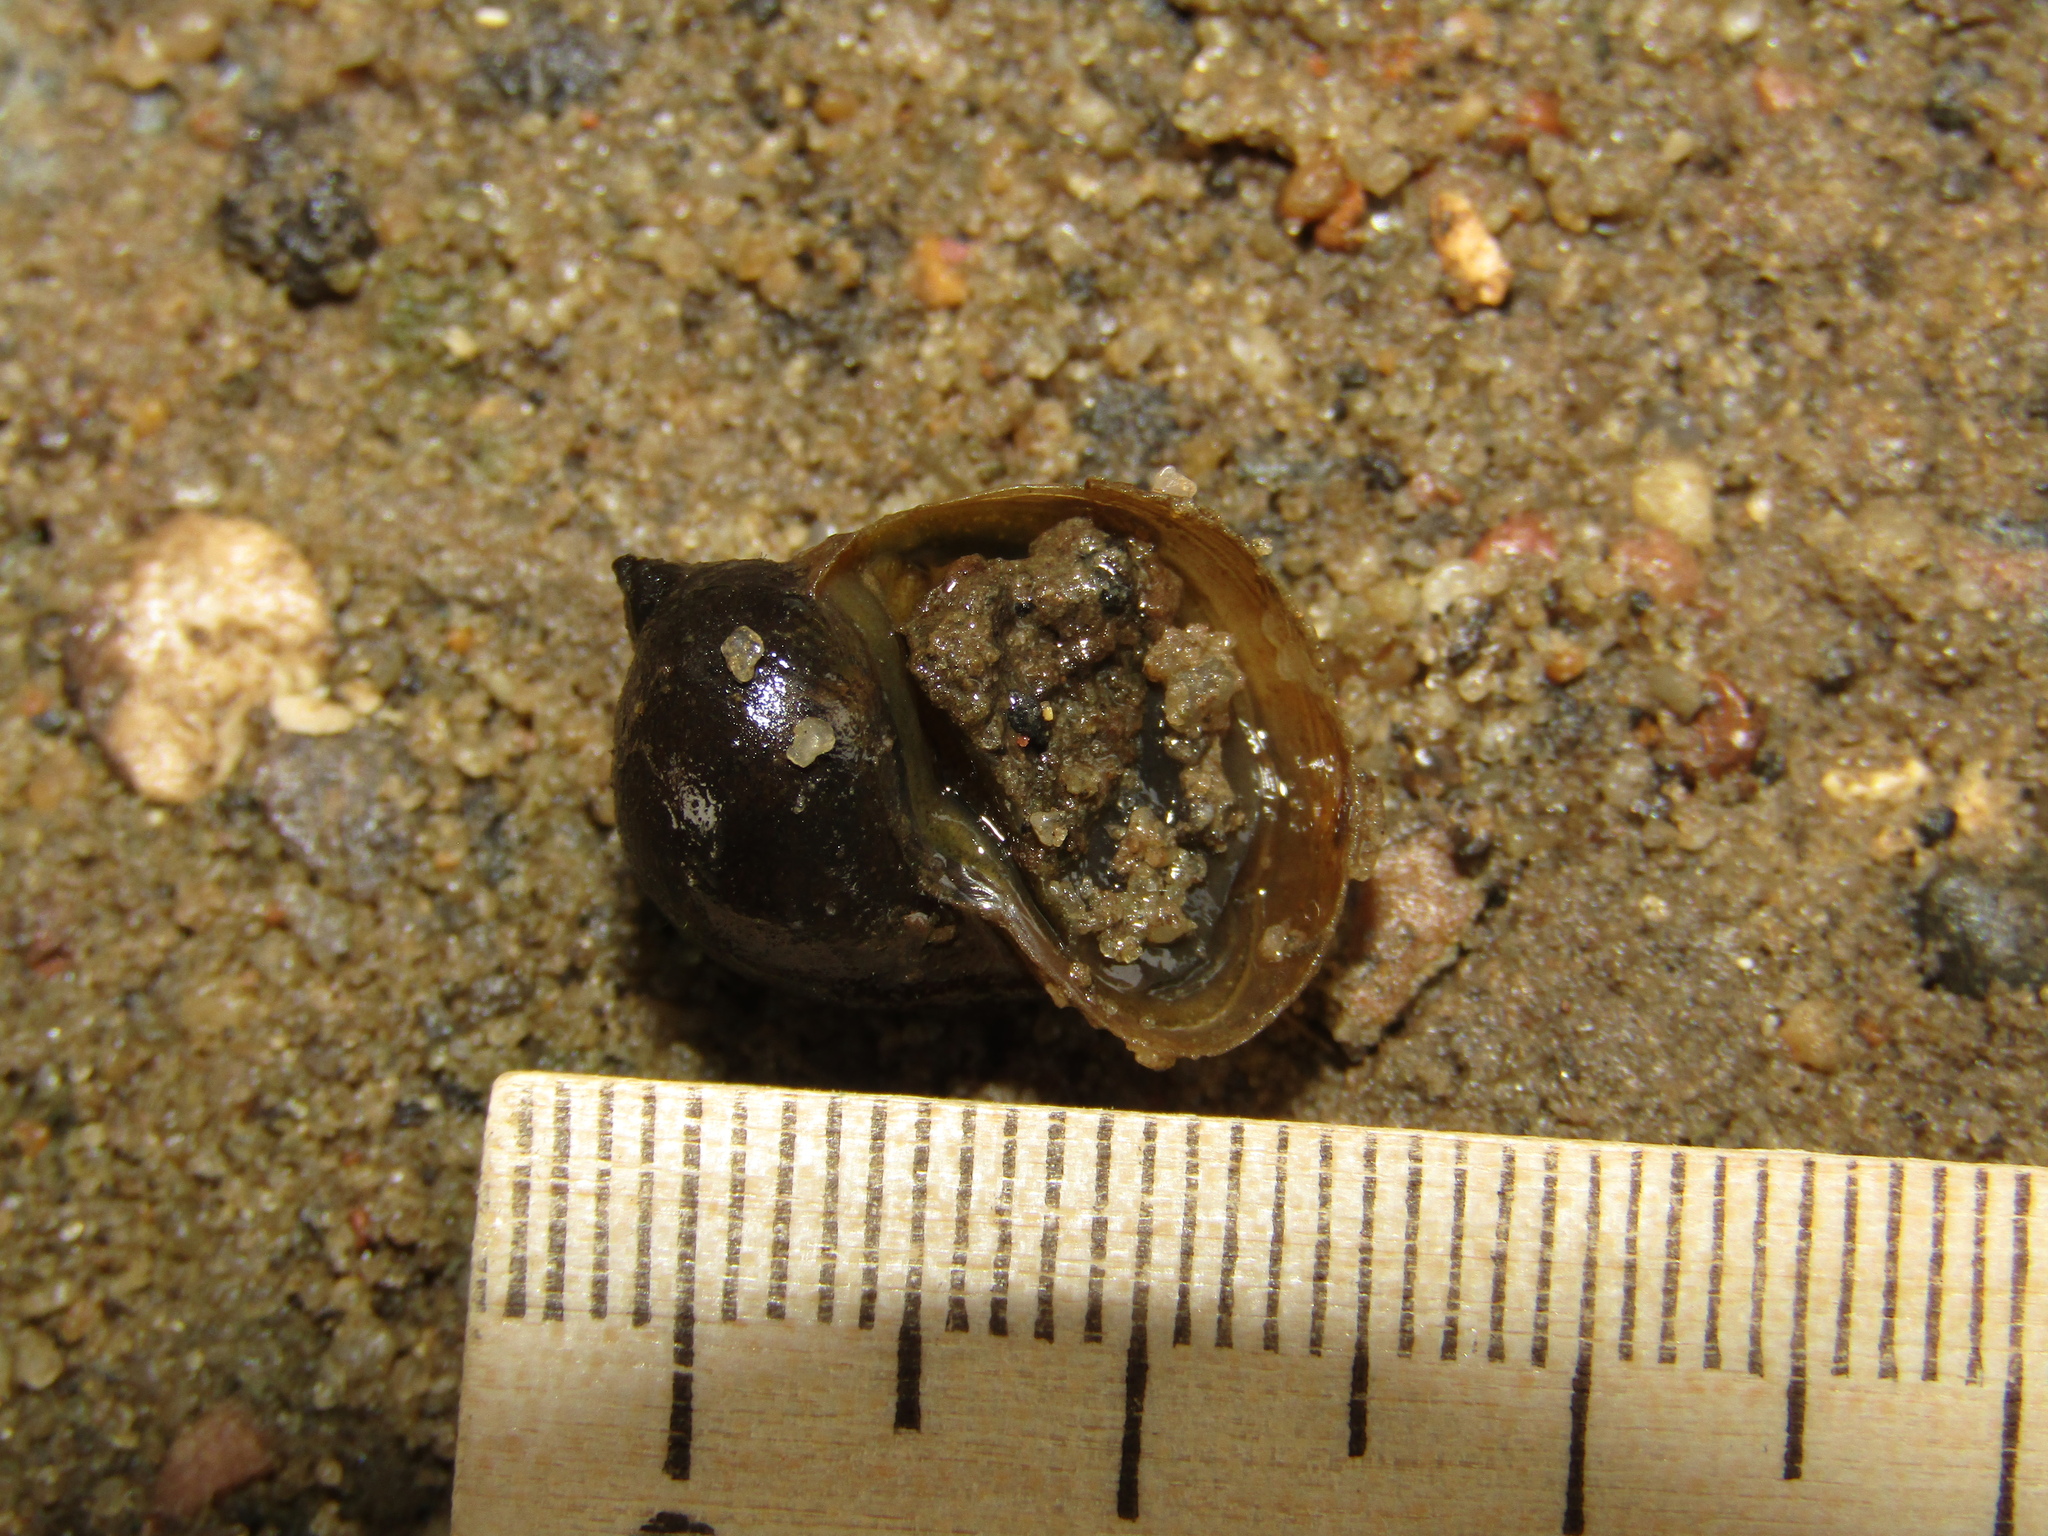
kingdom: Animalia
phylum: Mollusca
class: Gastropoda
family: Lymnaeidae
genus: Radix
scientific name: Radix auricularia
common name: Ear pond snail
